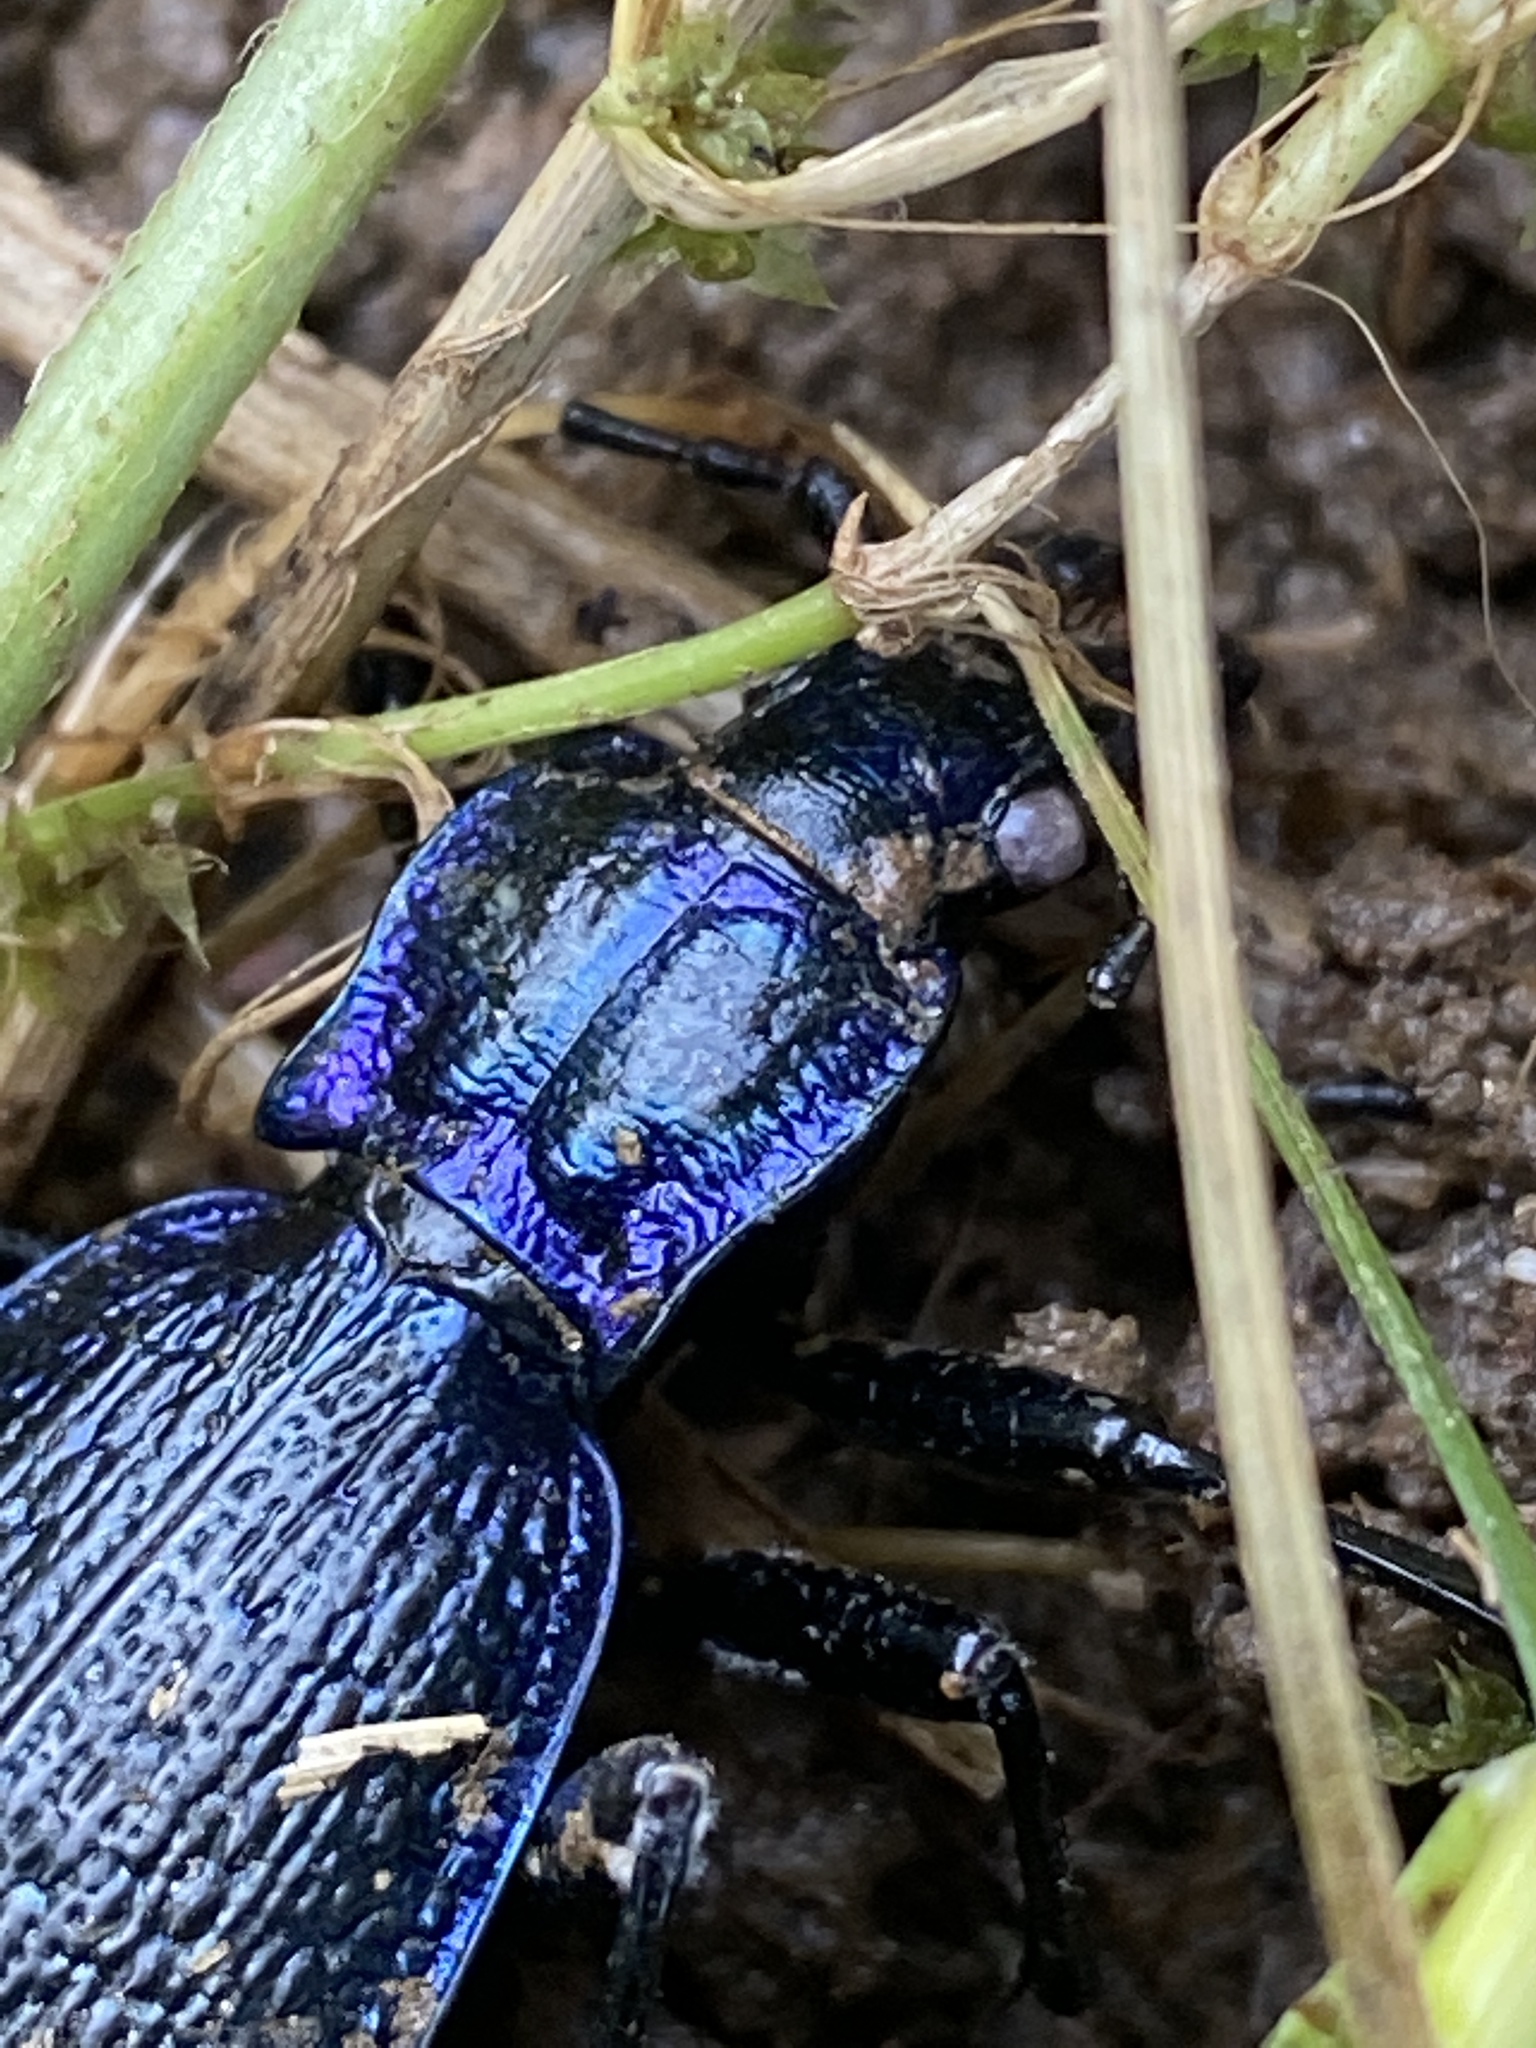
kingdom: Animalia
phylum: Arthropoda
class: Insecta
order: Coleoptera
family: Carabidae
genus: Carabus
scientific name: Carabus intricatus
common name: Blue ground beetle
